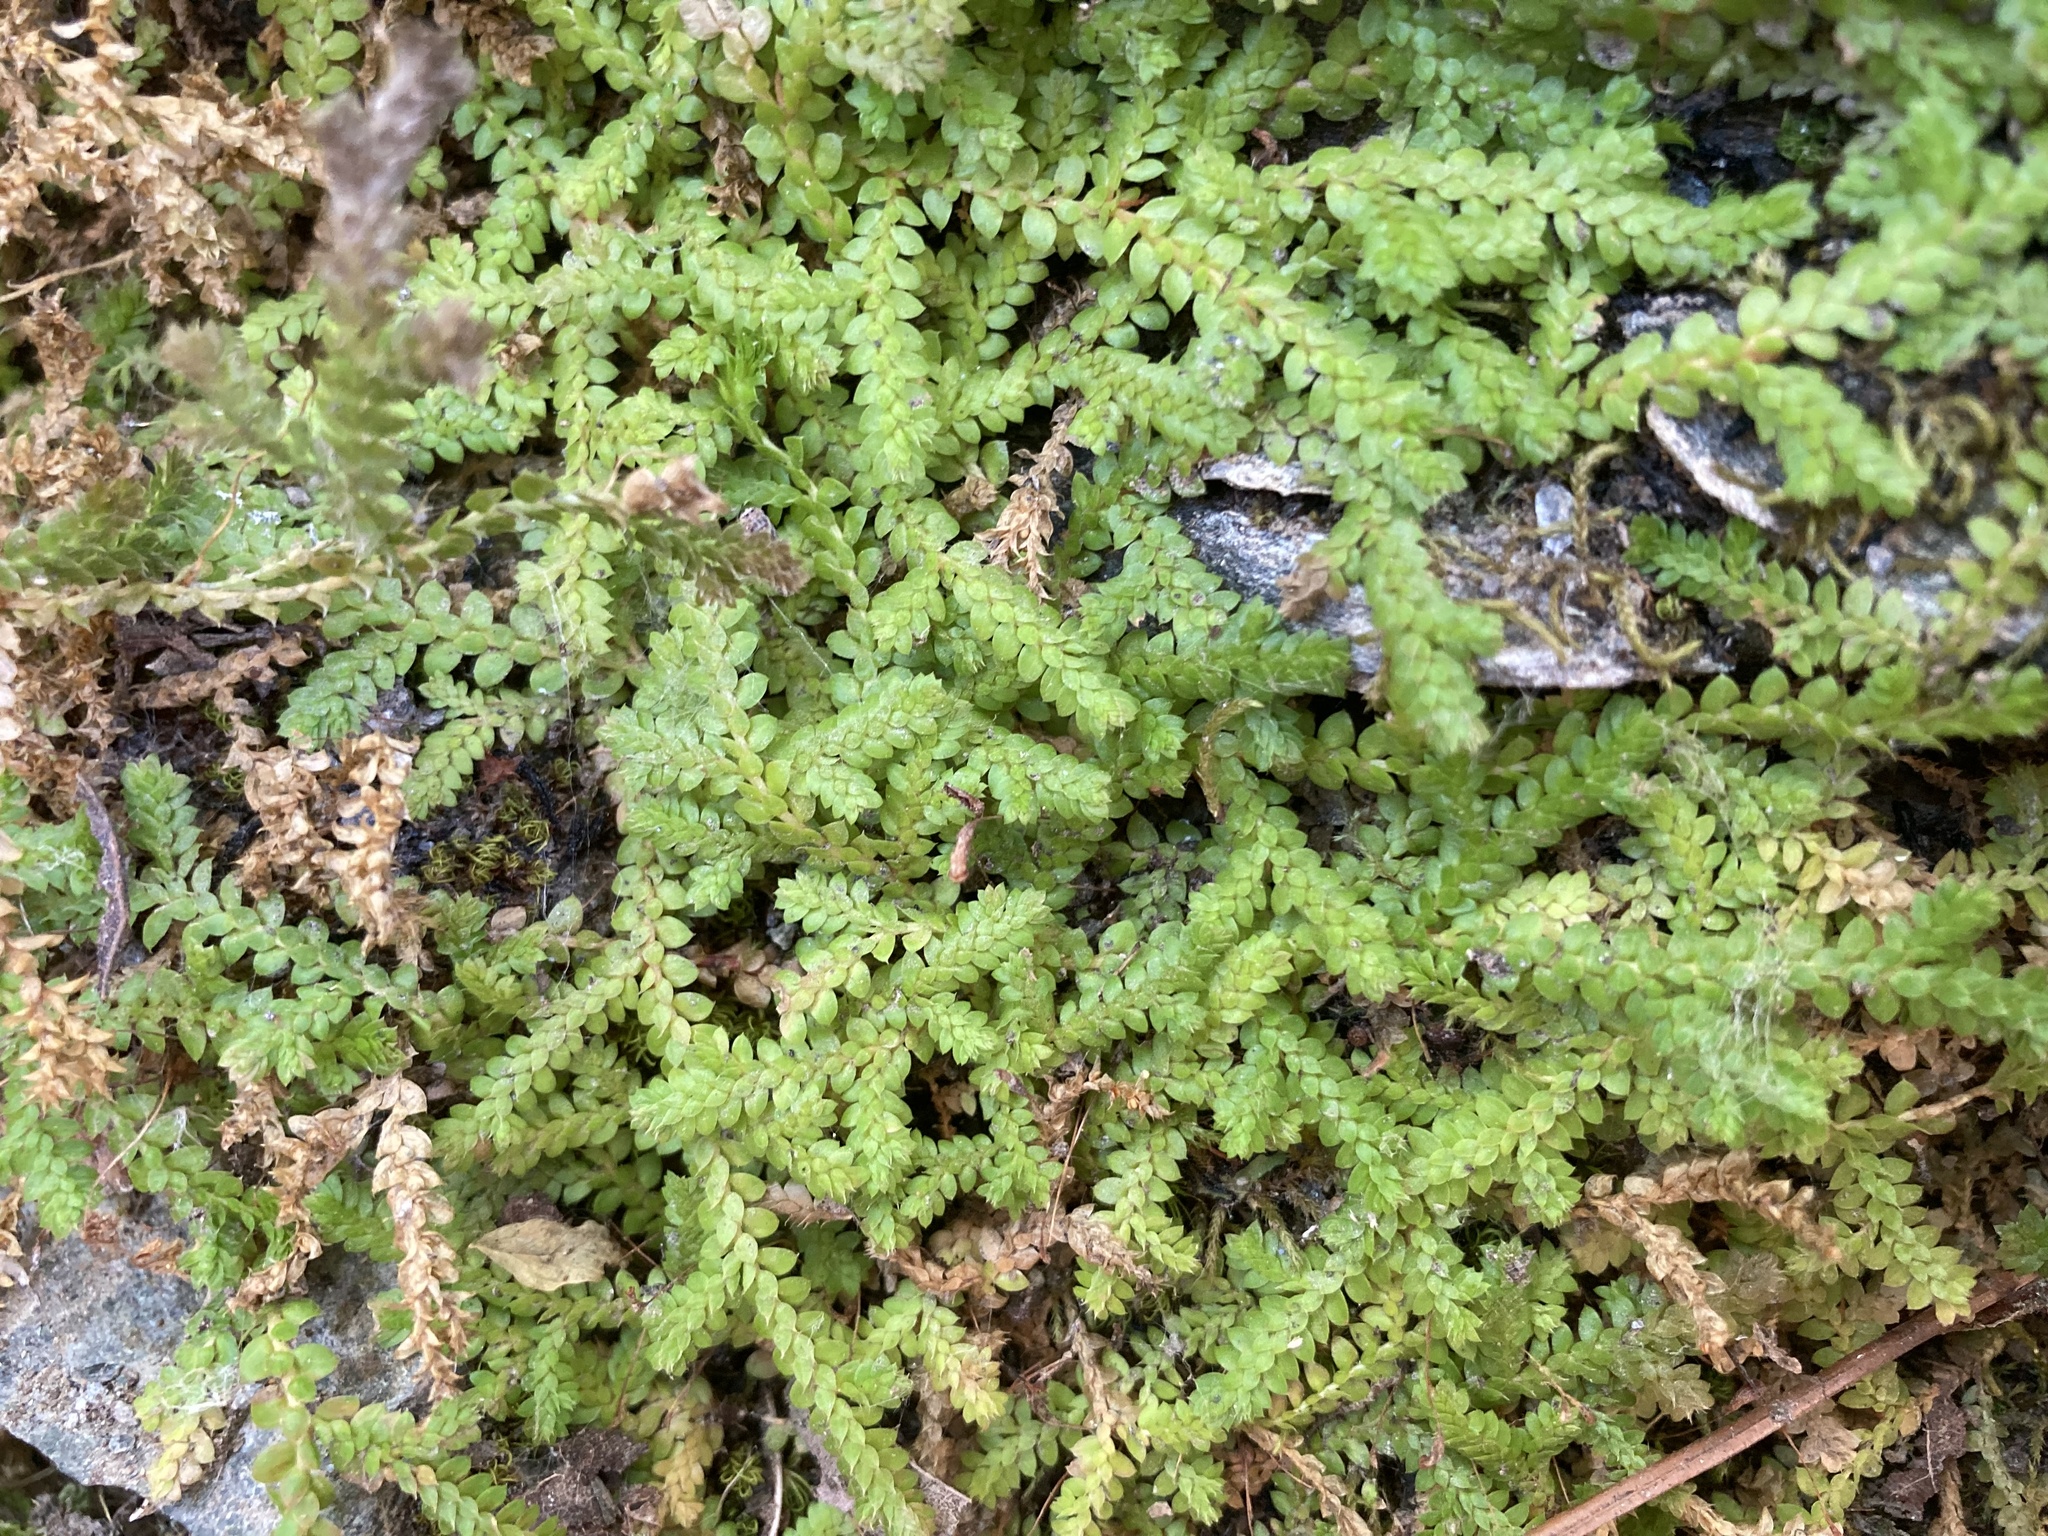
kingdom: Plantae
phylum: Tracheophyta
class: Lycopodiopsida
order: Selaginellales
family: Selaginellaceae
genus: Selaginella
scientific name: Selaginella denticulata
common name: Toothed-leaved clubmoss
